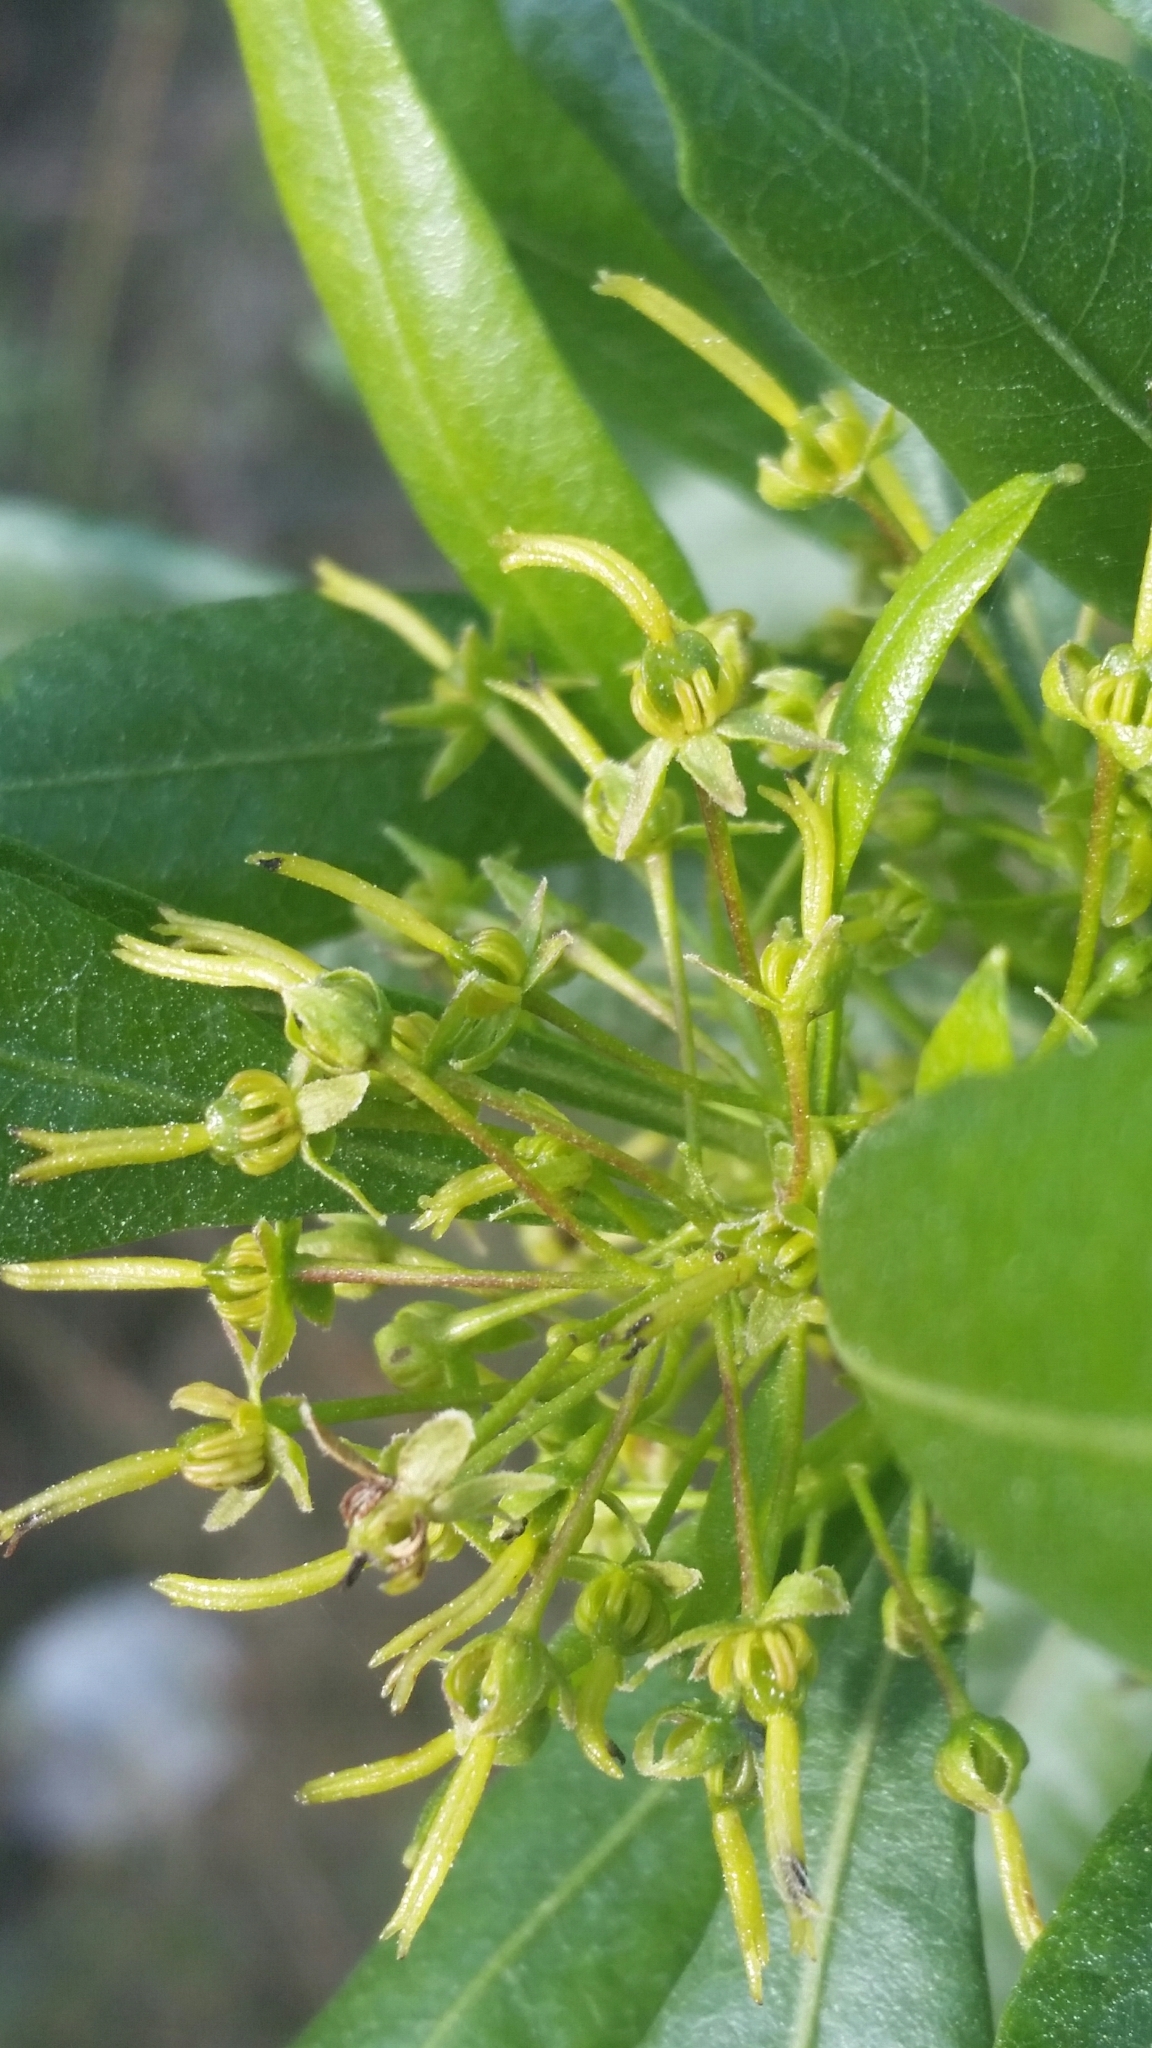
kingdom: Plantae
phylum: Tracheophyta
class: Magnoliopsida
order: Sapindales
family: Sapindaceae
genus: Dodonaea
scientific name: Dodonaea viscosa
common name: Hopbush
